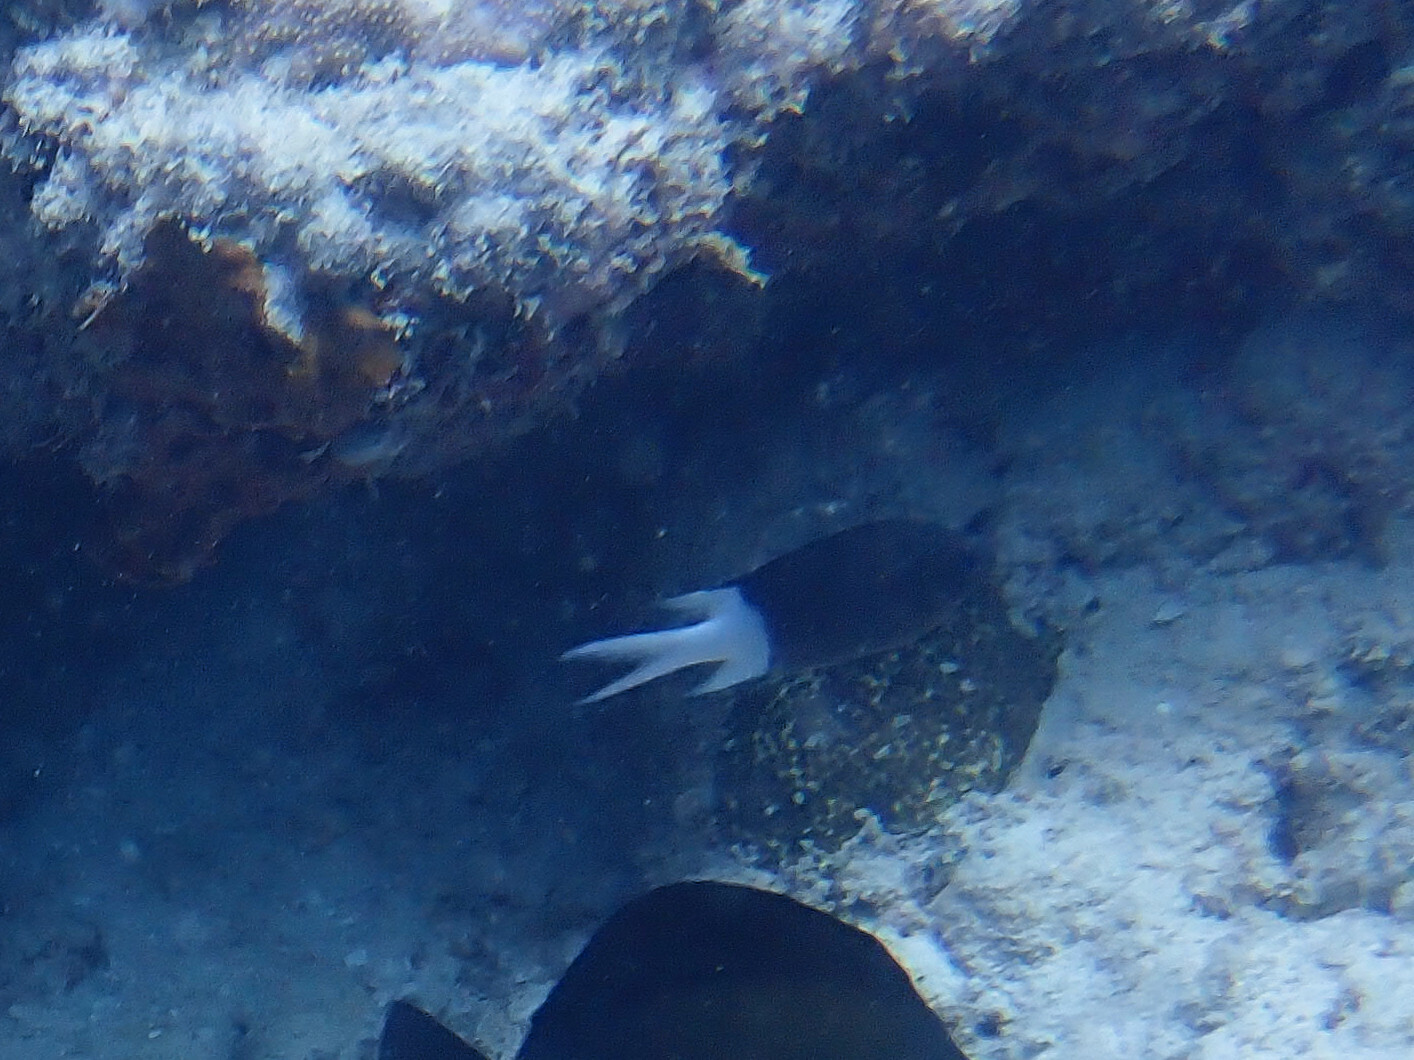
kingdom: Animalia
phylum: Chordata
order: Perciformes
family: Pomacentridae
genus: Acanthochromis
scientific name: Acanthochromis polyacanthus
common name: Spiny chromis
